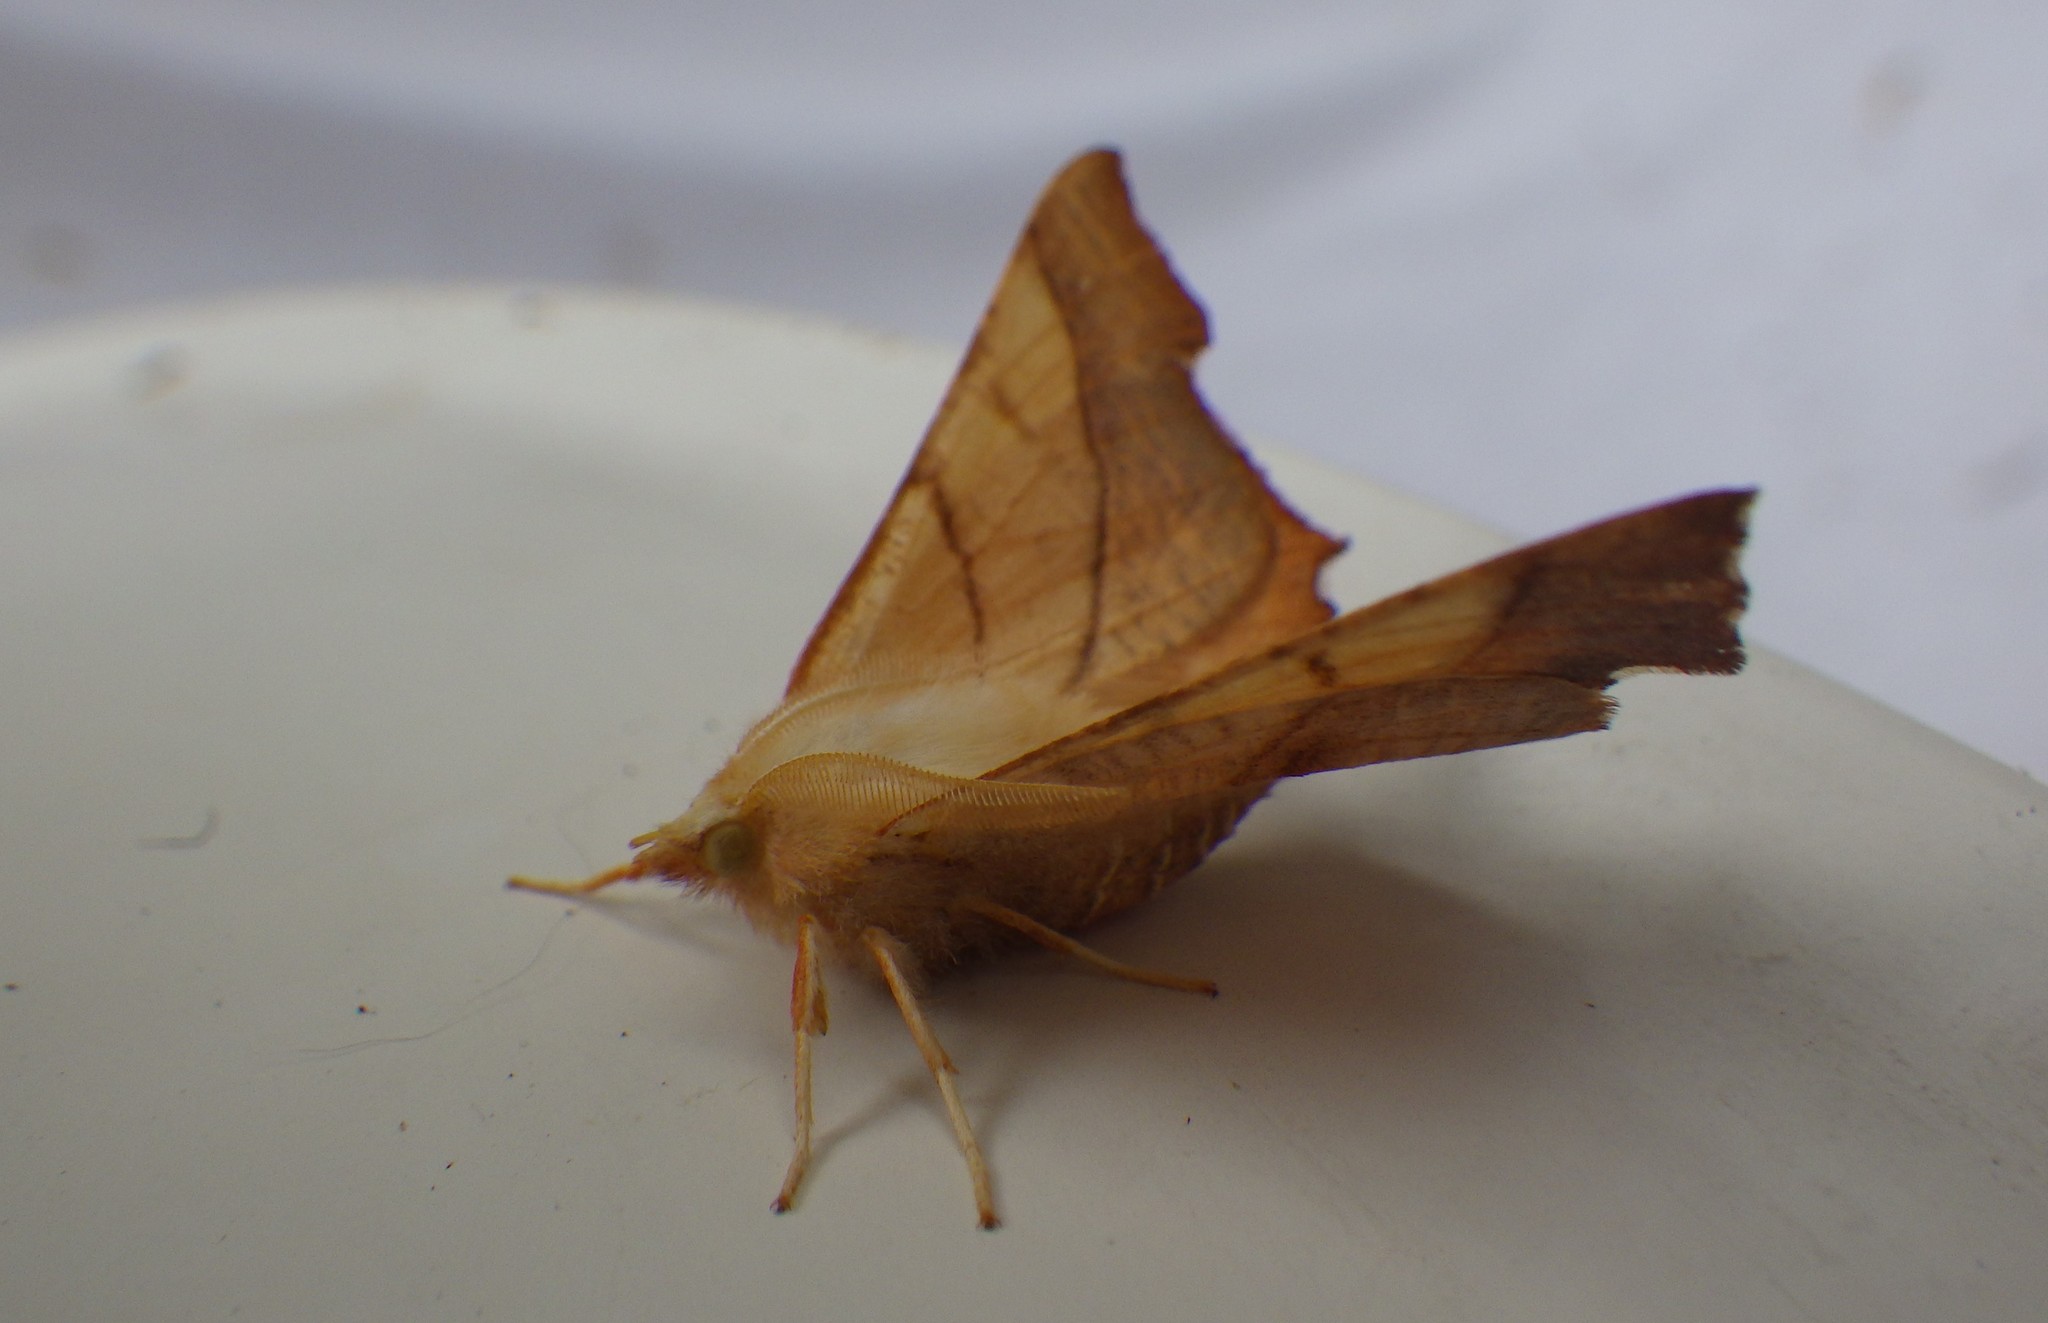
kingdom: Animalia
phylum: Arthropoda
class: Insecta
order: Lepidoptera
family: Geometridae
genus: Ennomos
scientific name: Ennomos fuscantaria
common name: Dusky thorn
